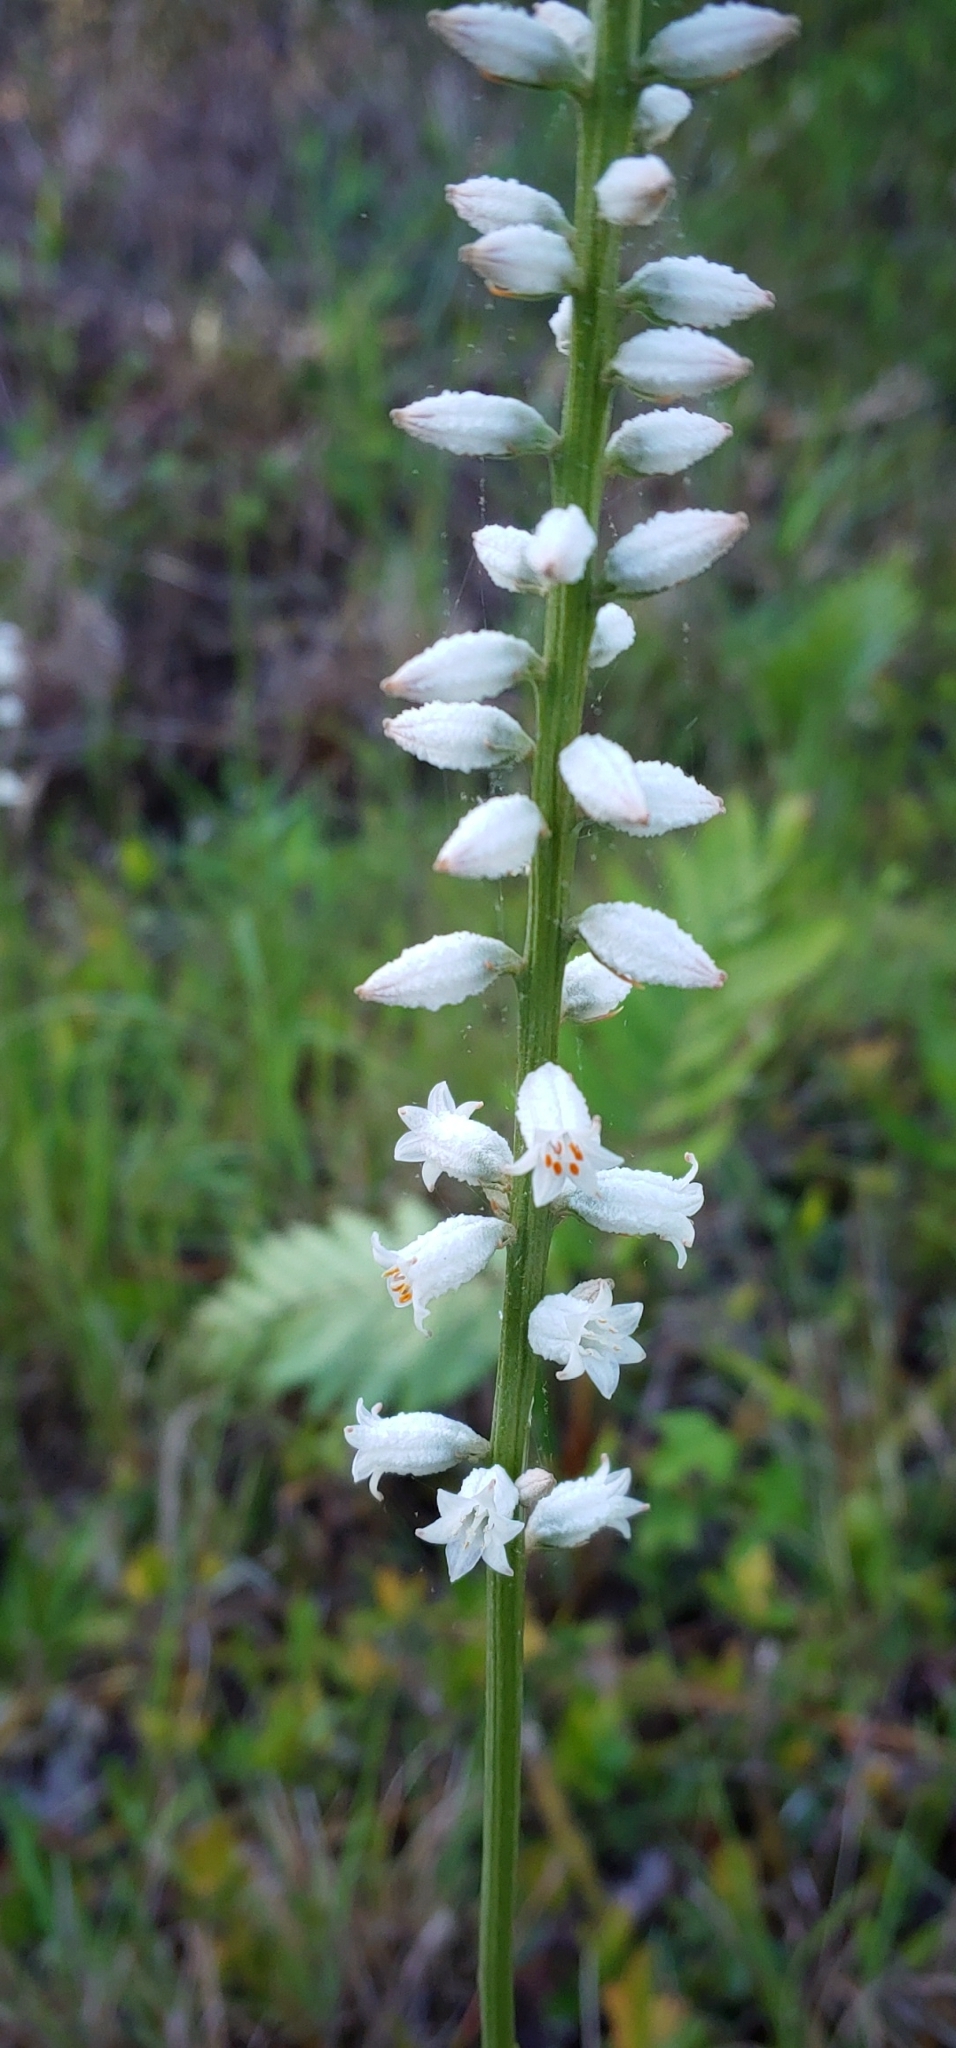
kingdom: Plantae
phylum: Tracheophyta
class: Liliopsida
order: Dioscoreales
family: Nartheciaceae
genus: Aletris
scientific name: Aletris farinosa
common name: Colicroot
